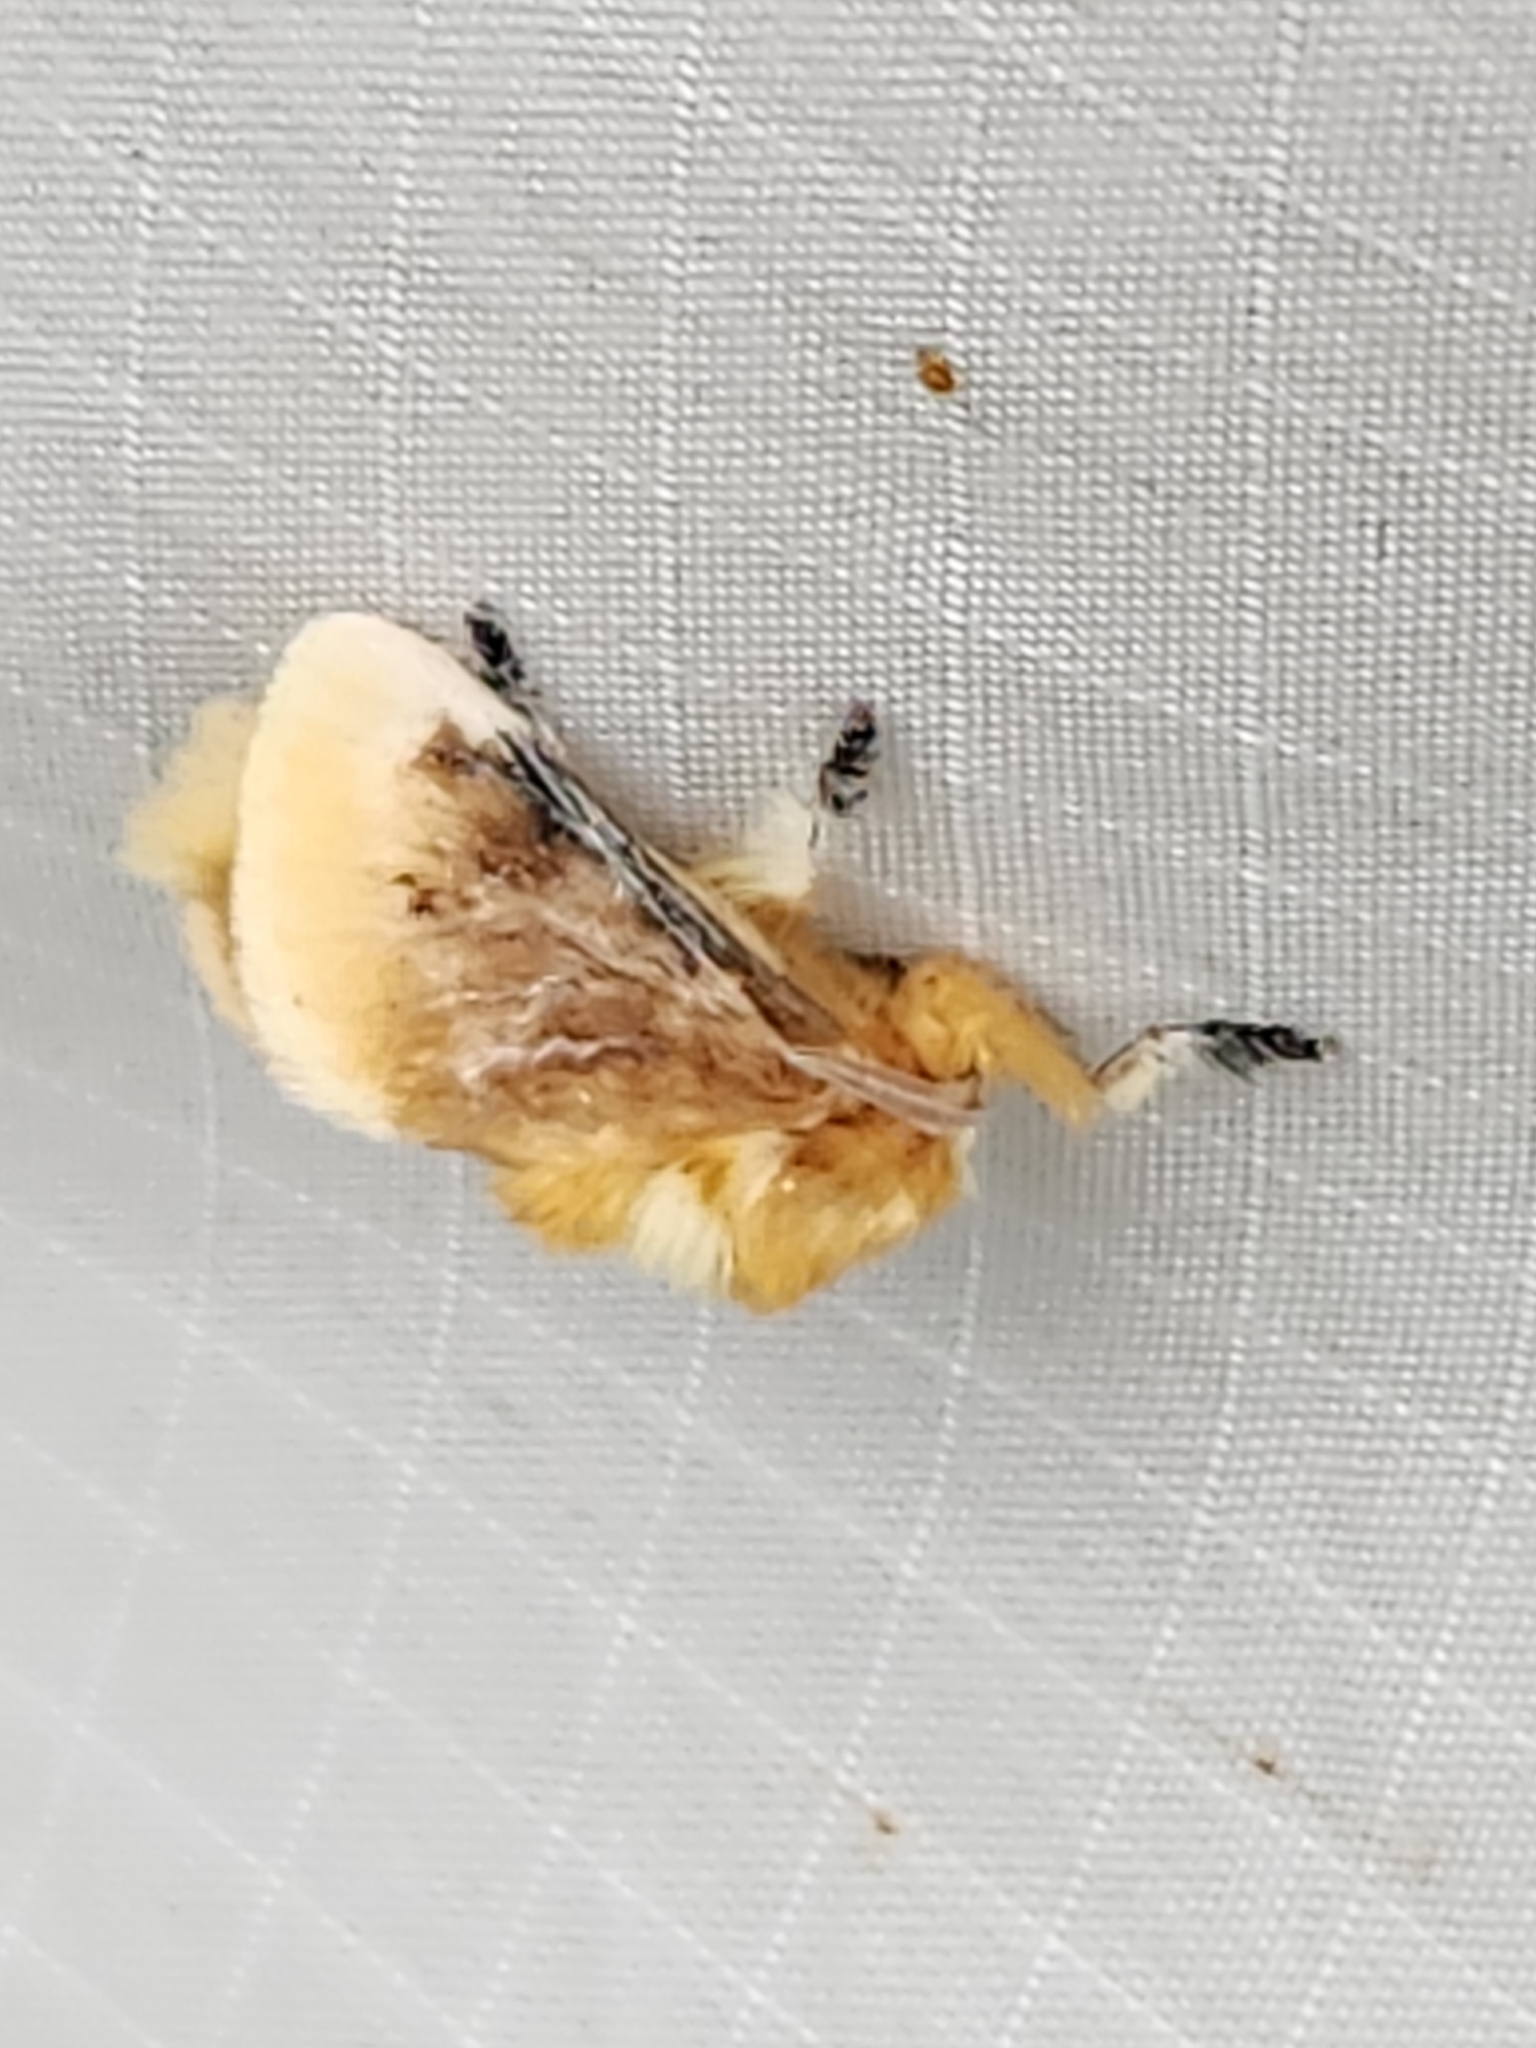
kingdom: Animalia
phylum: Arthropoda
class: Insecta
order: Lepidoptera
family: Megalopygidae
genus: Megalopyge
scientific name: Megalopyge opercularis
